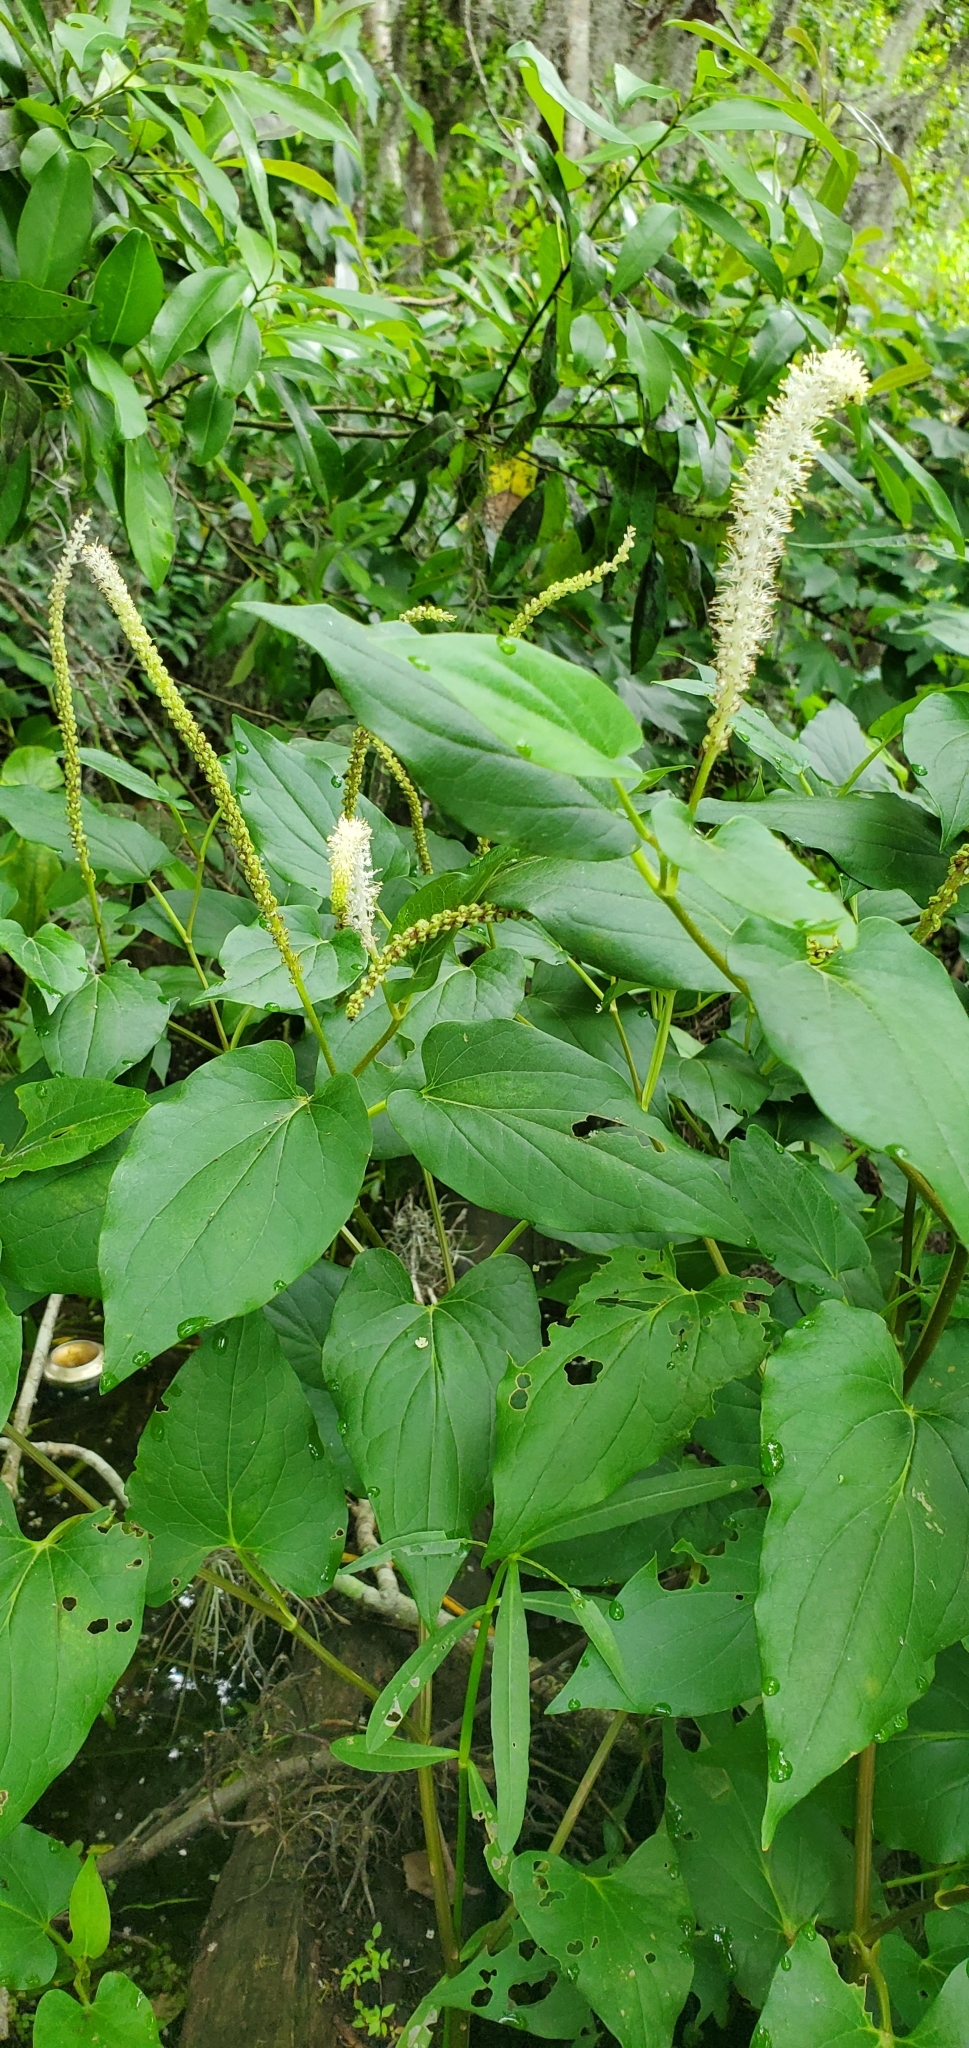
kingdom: Plantae
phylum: Tracheophyta
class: Magnoliopsida
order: Piperales
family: Saururaceae
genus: Saururus
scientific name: Saururus cernuus
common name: Lizard's-tail
